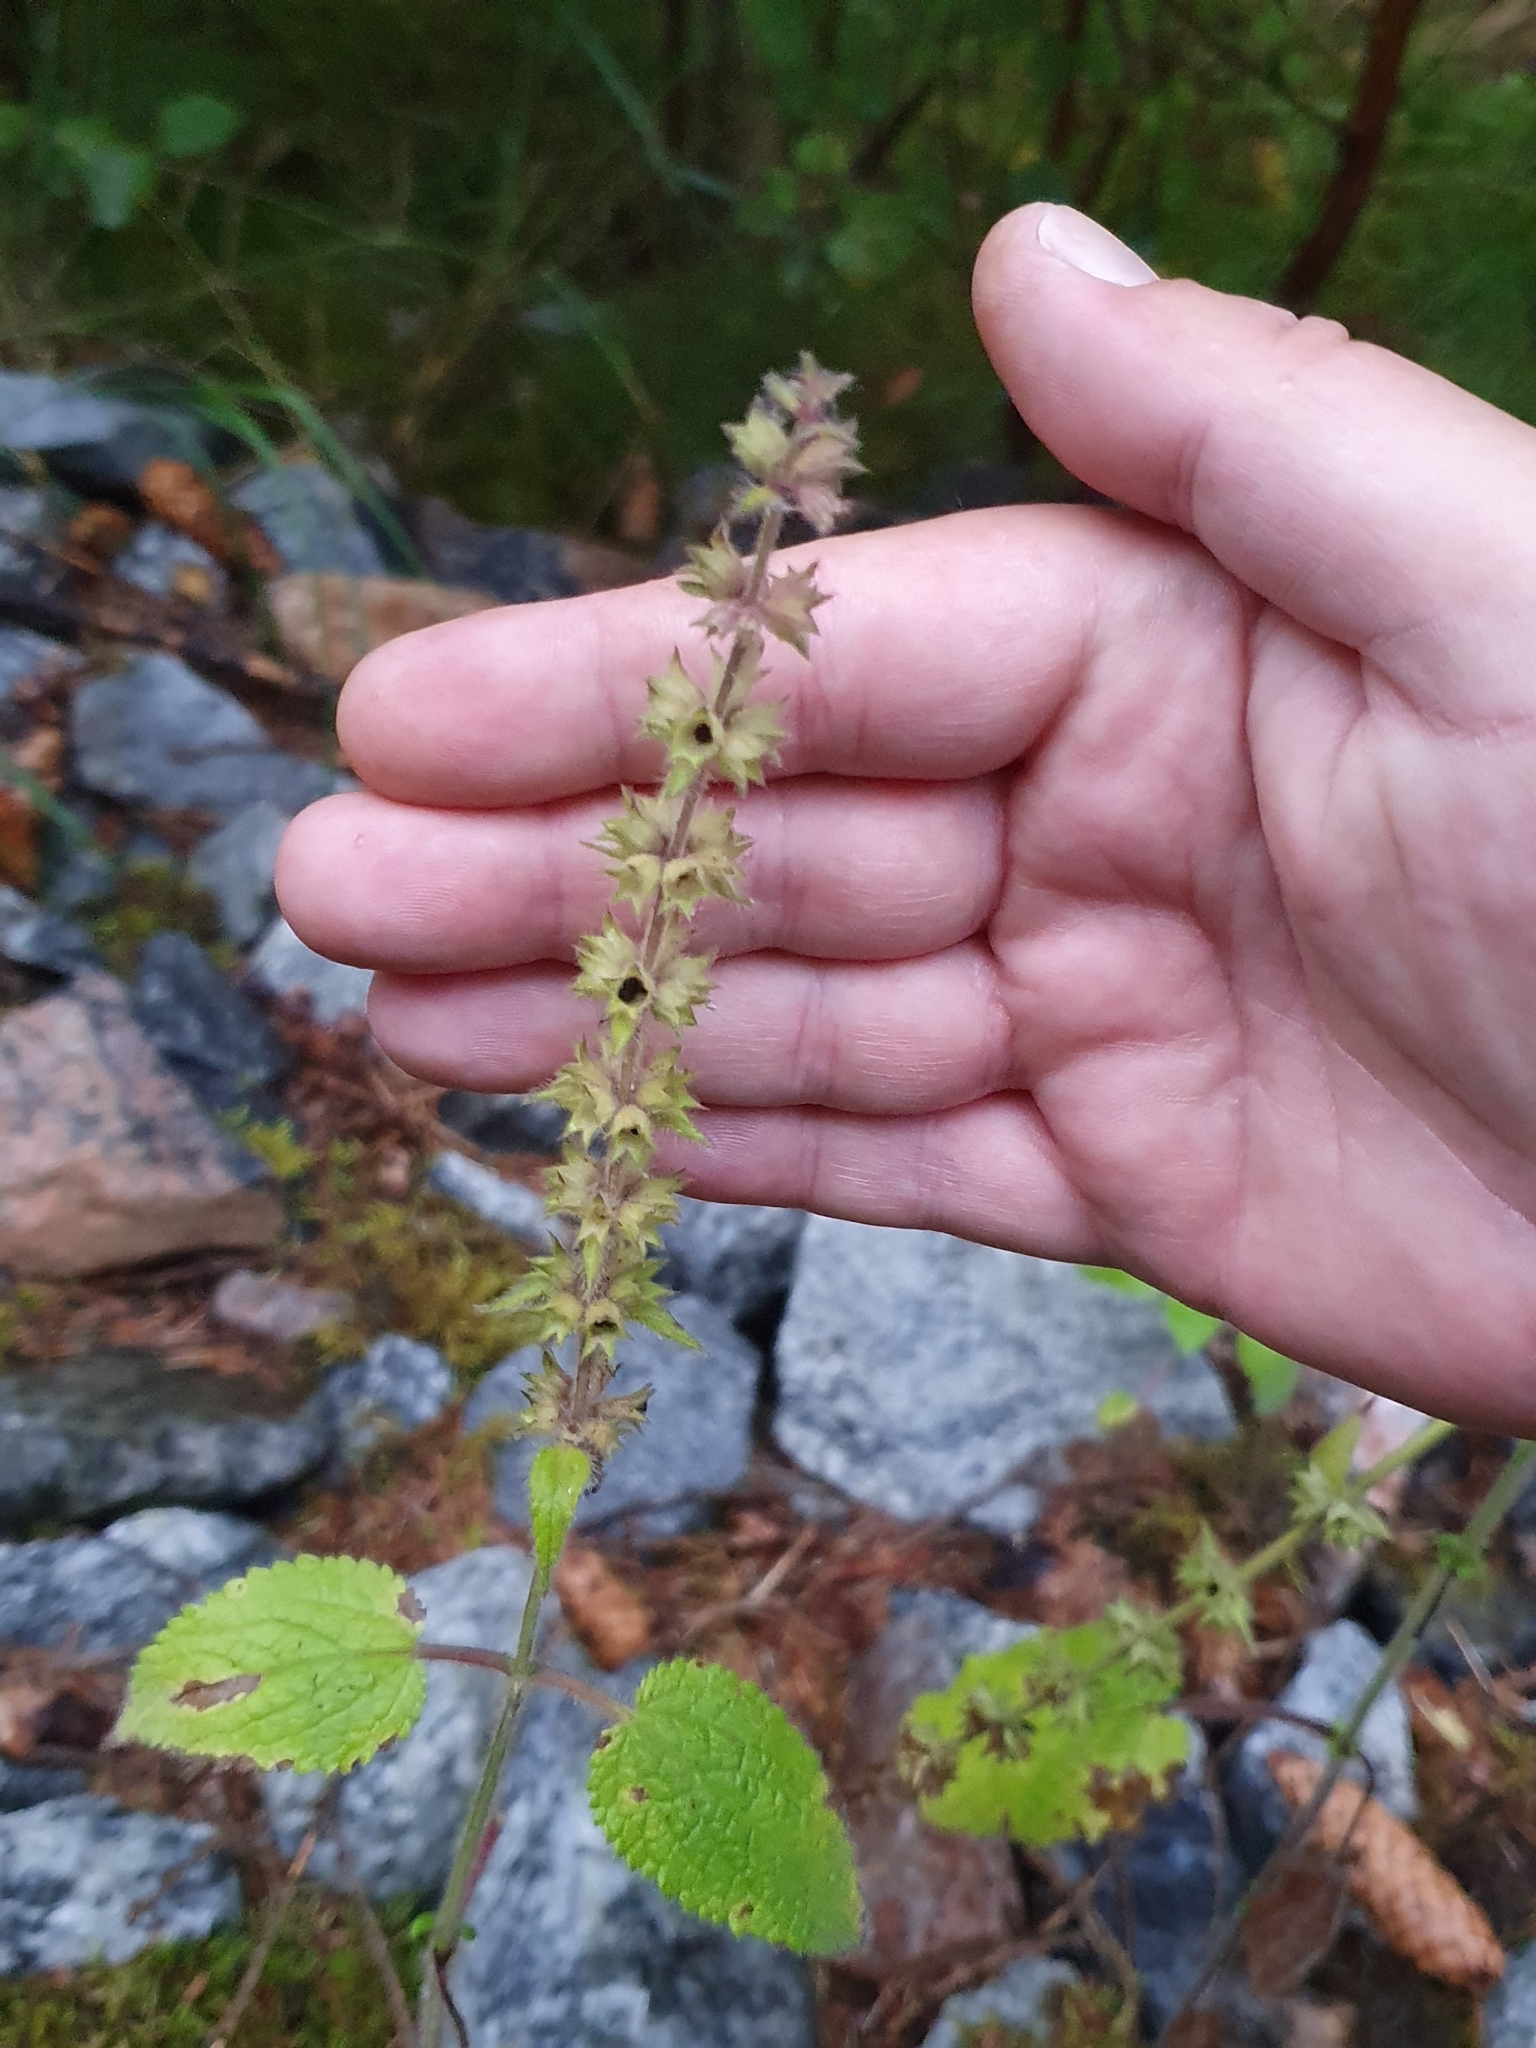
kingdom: Plantae
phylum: Tracheophyta
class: Magnoliopsida
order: Lamiales
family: Lamiaceae
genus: Stachys
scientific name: Stachys sylvatica
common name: Hedge woundwort
